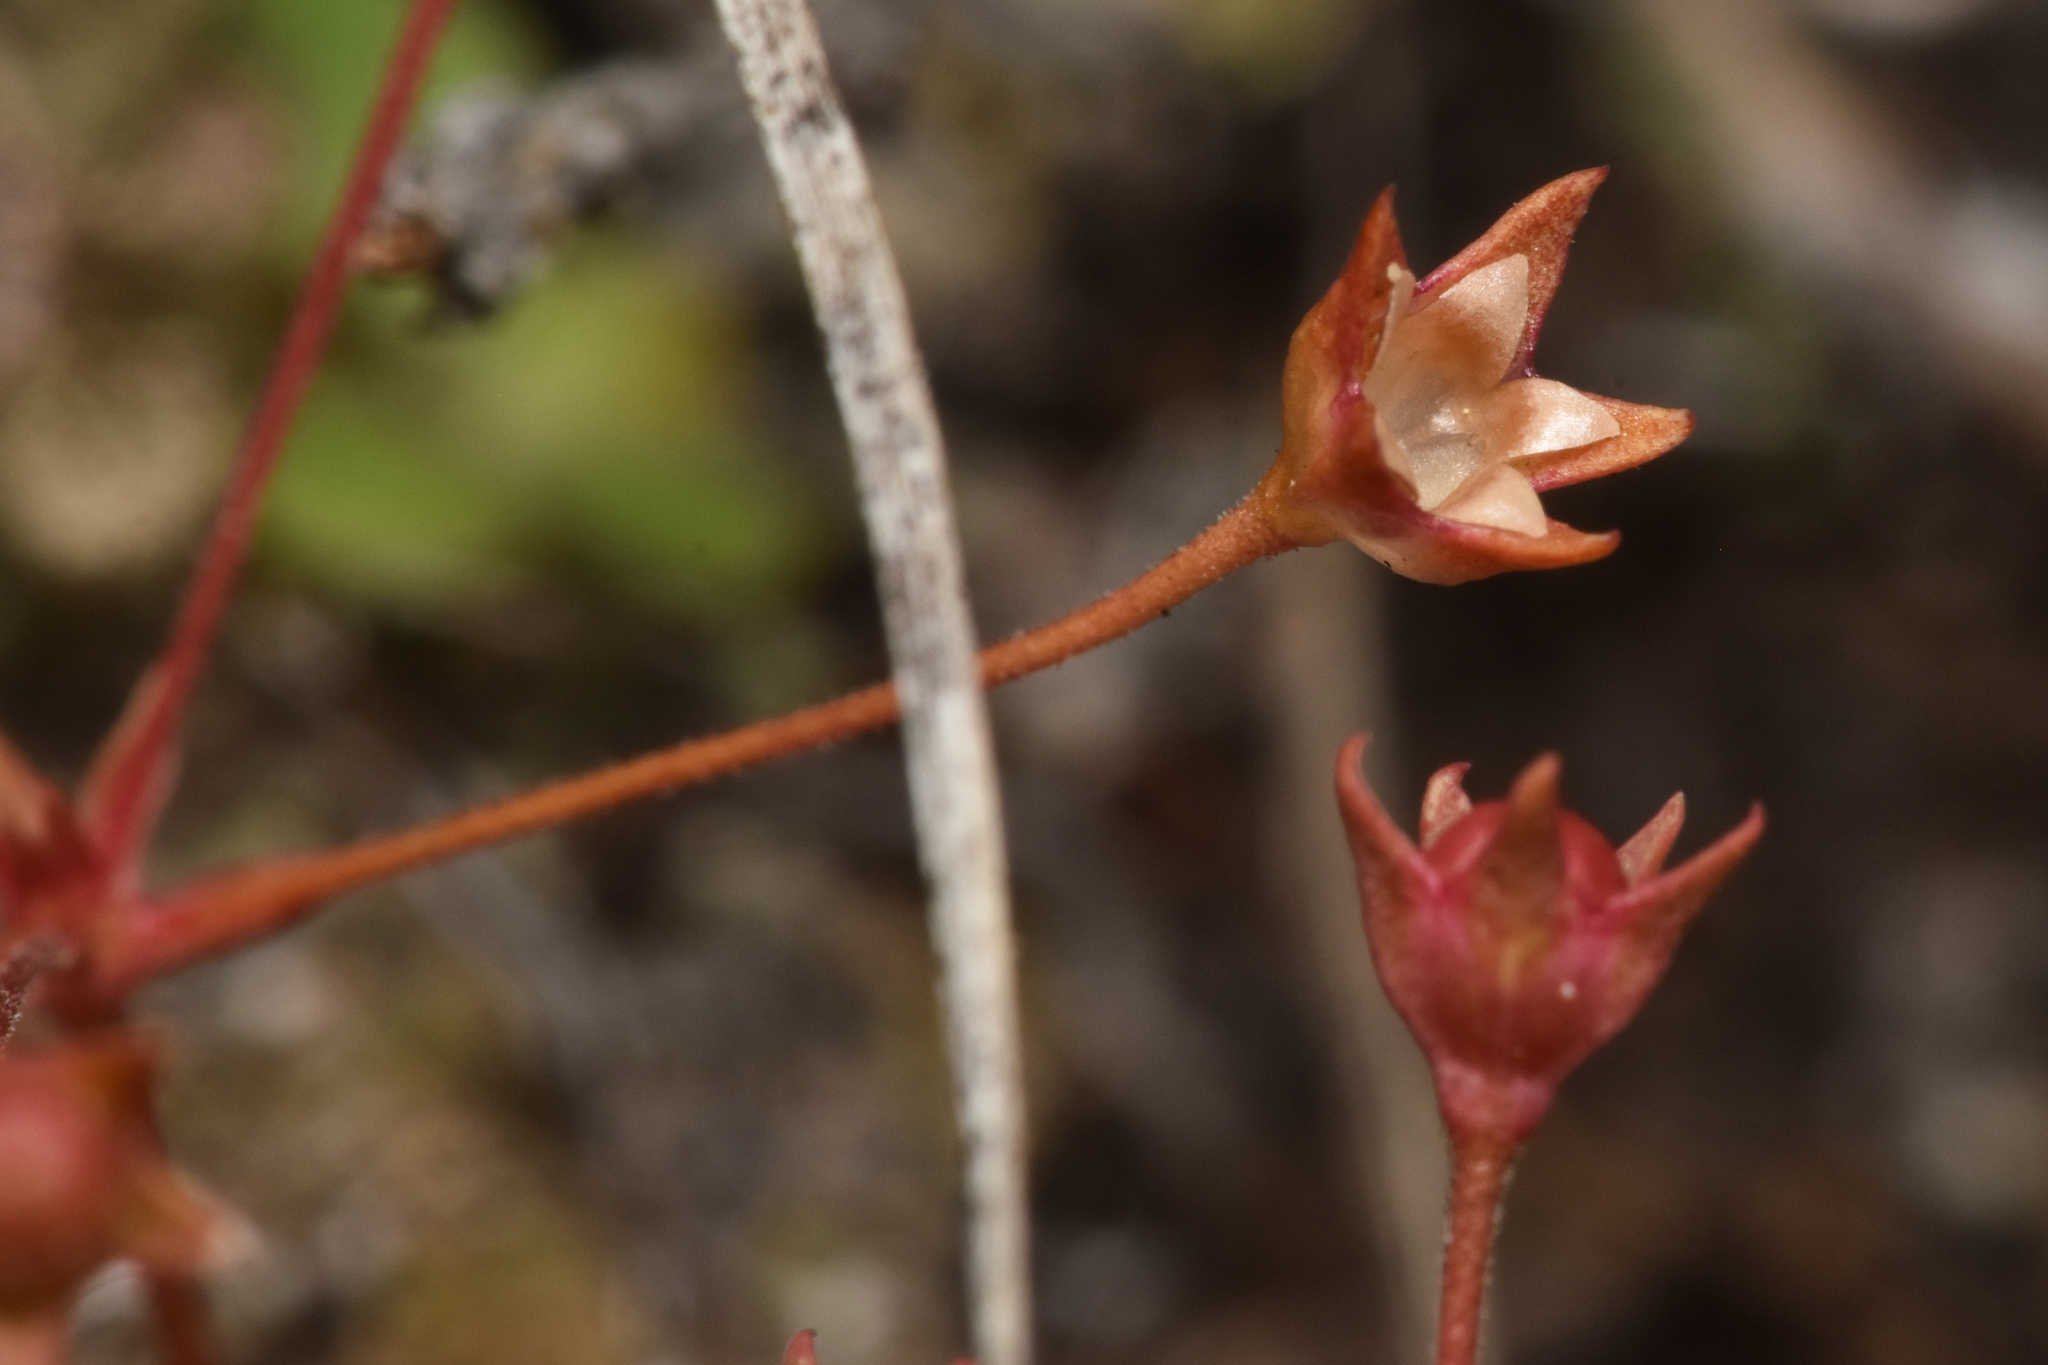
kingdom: Plantae
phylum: Tracheophyta
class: Magnoliopsida
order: Ericales
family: Primulaceae
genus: Androsace
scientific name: Androsace septentrionalis
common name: Hairy northern fairy-candelabra
